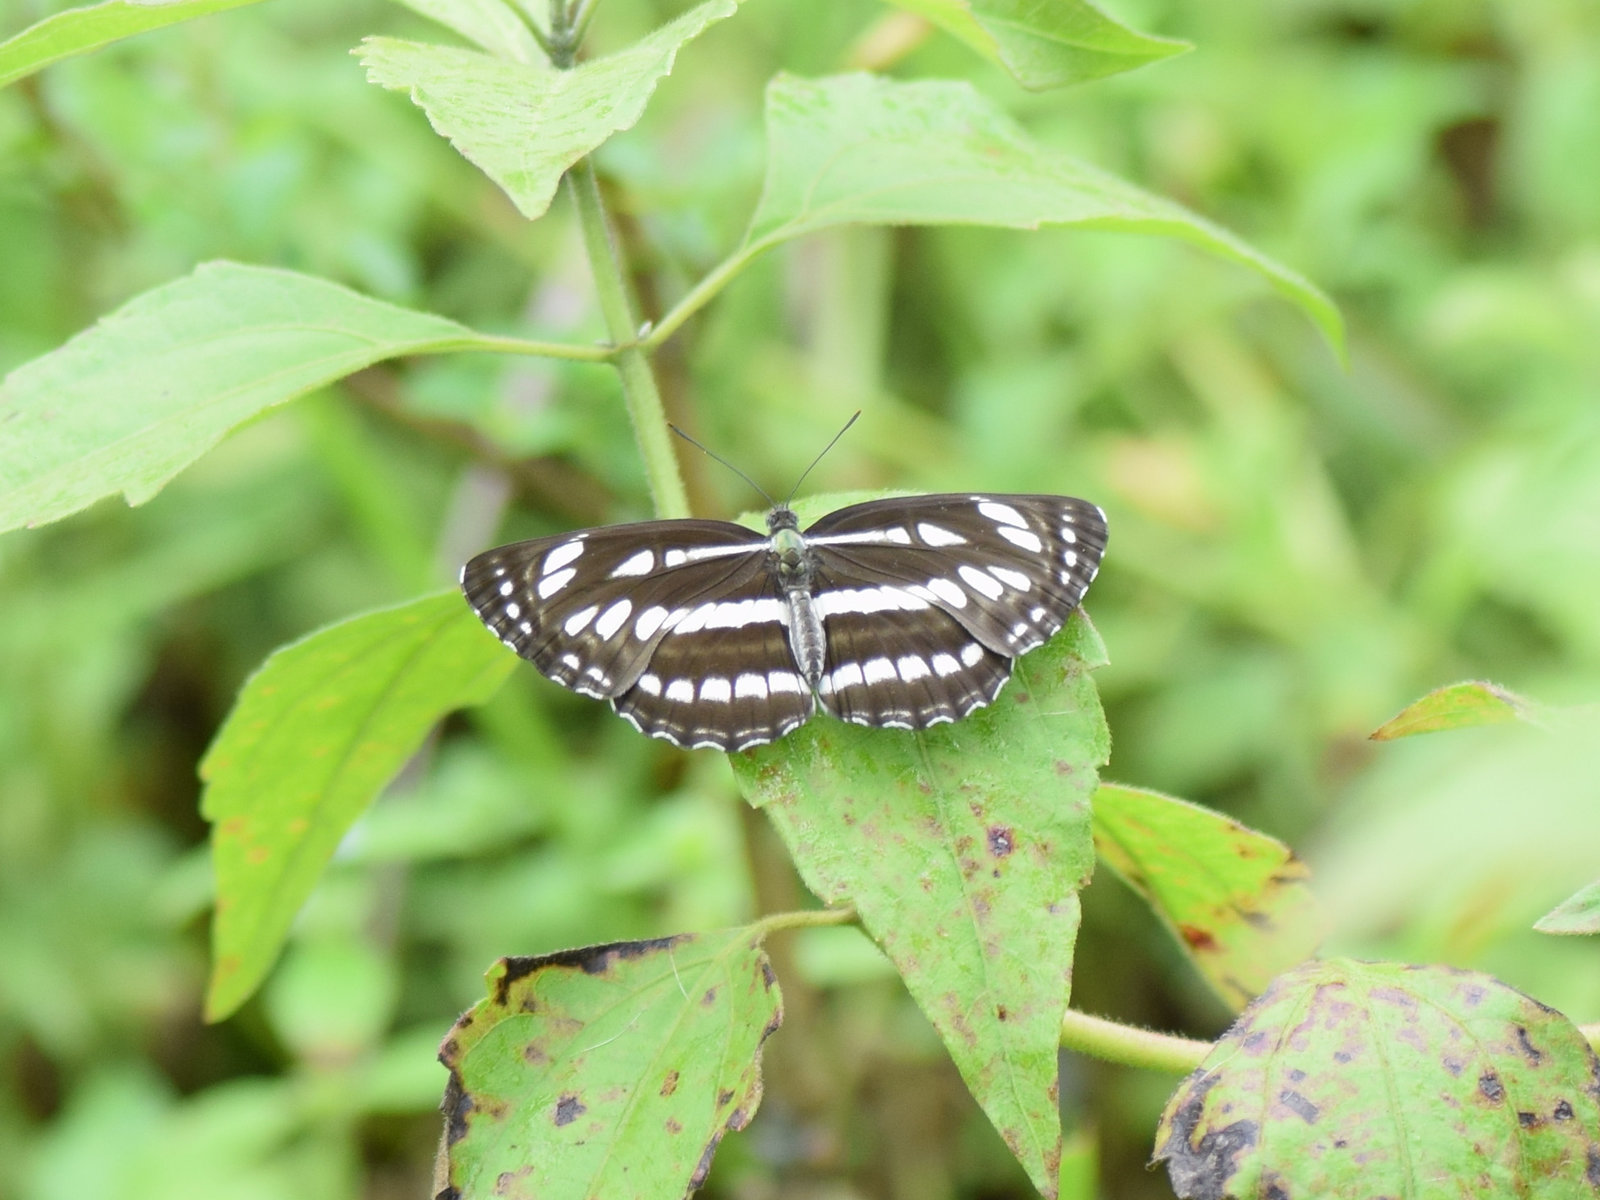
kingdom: Animalia
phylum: Arthropoda
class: Insecta
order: Lepidoptera
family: Nymphalidae
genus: Neptis
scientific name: Neptis hylas
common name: Common sailer
